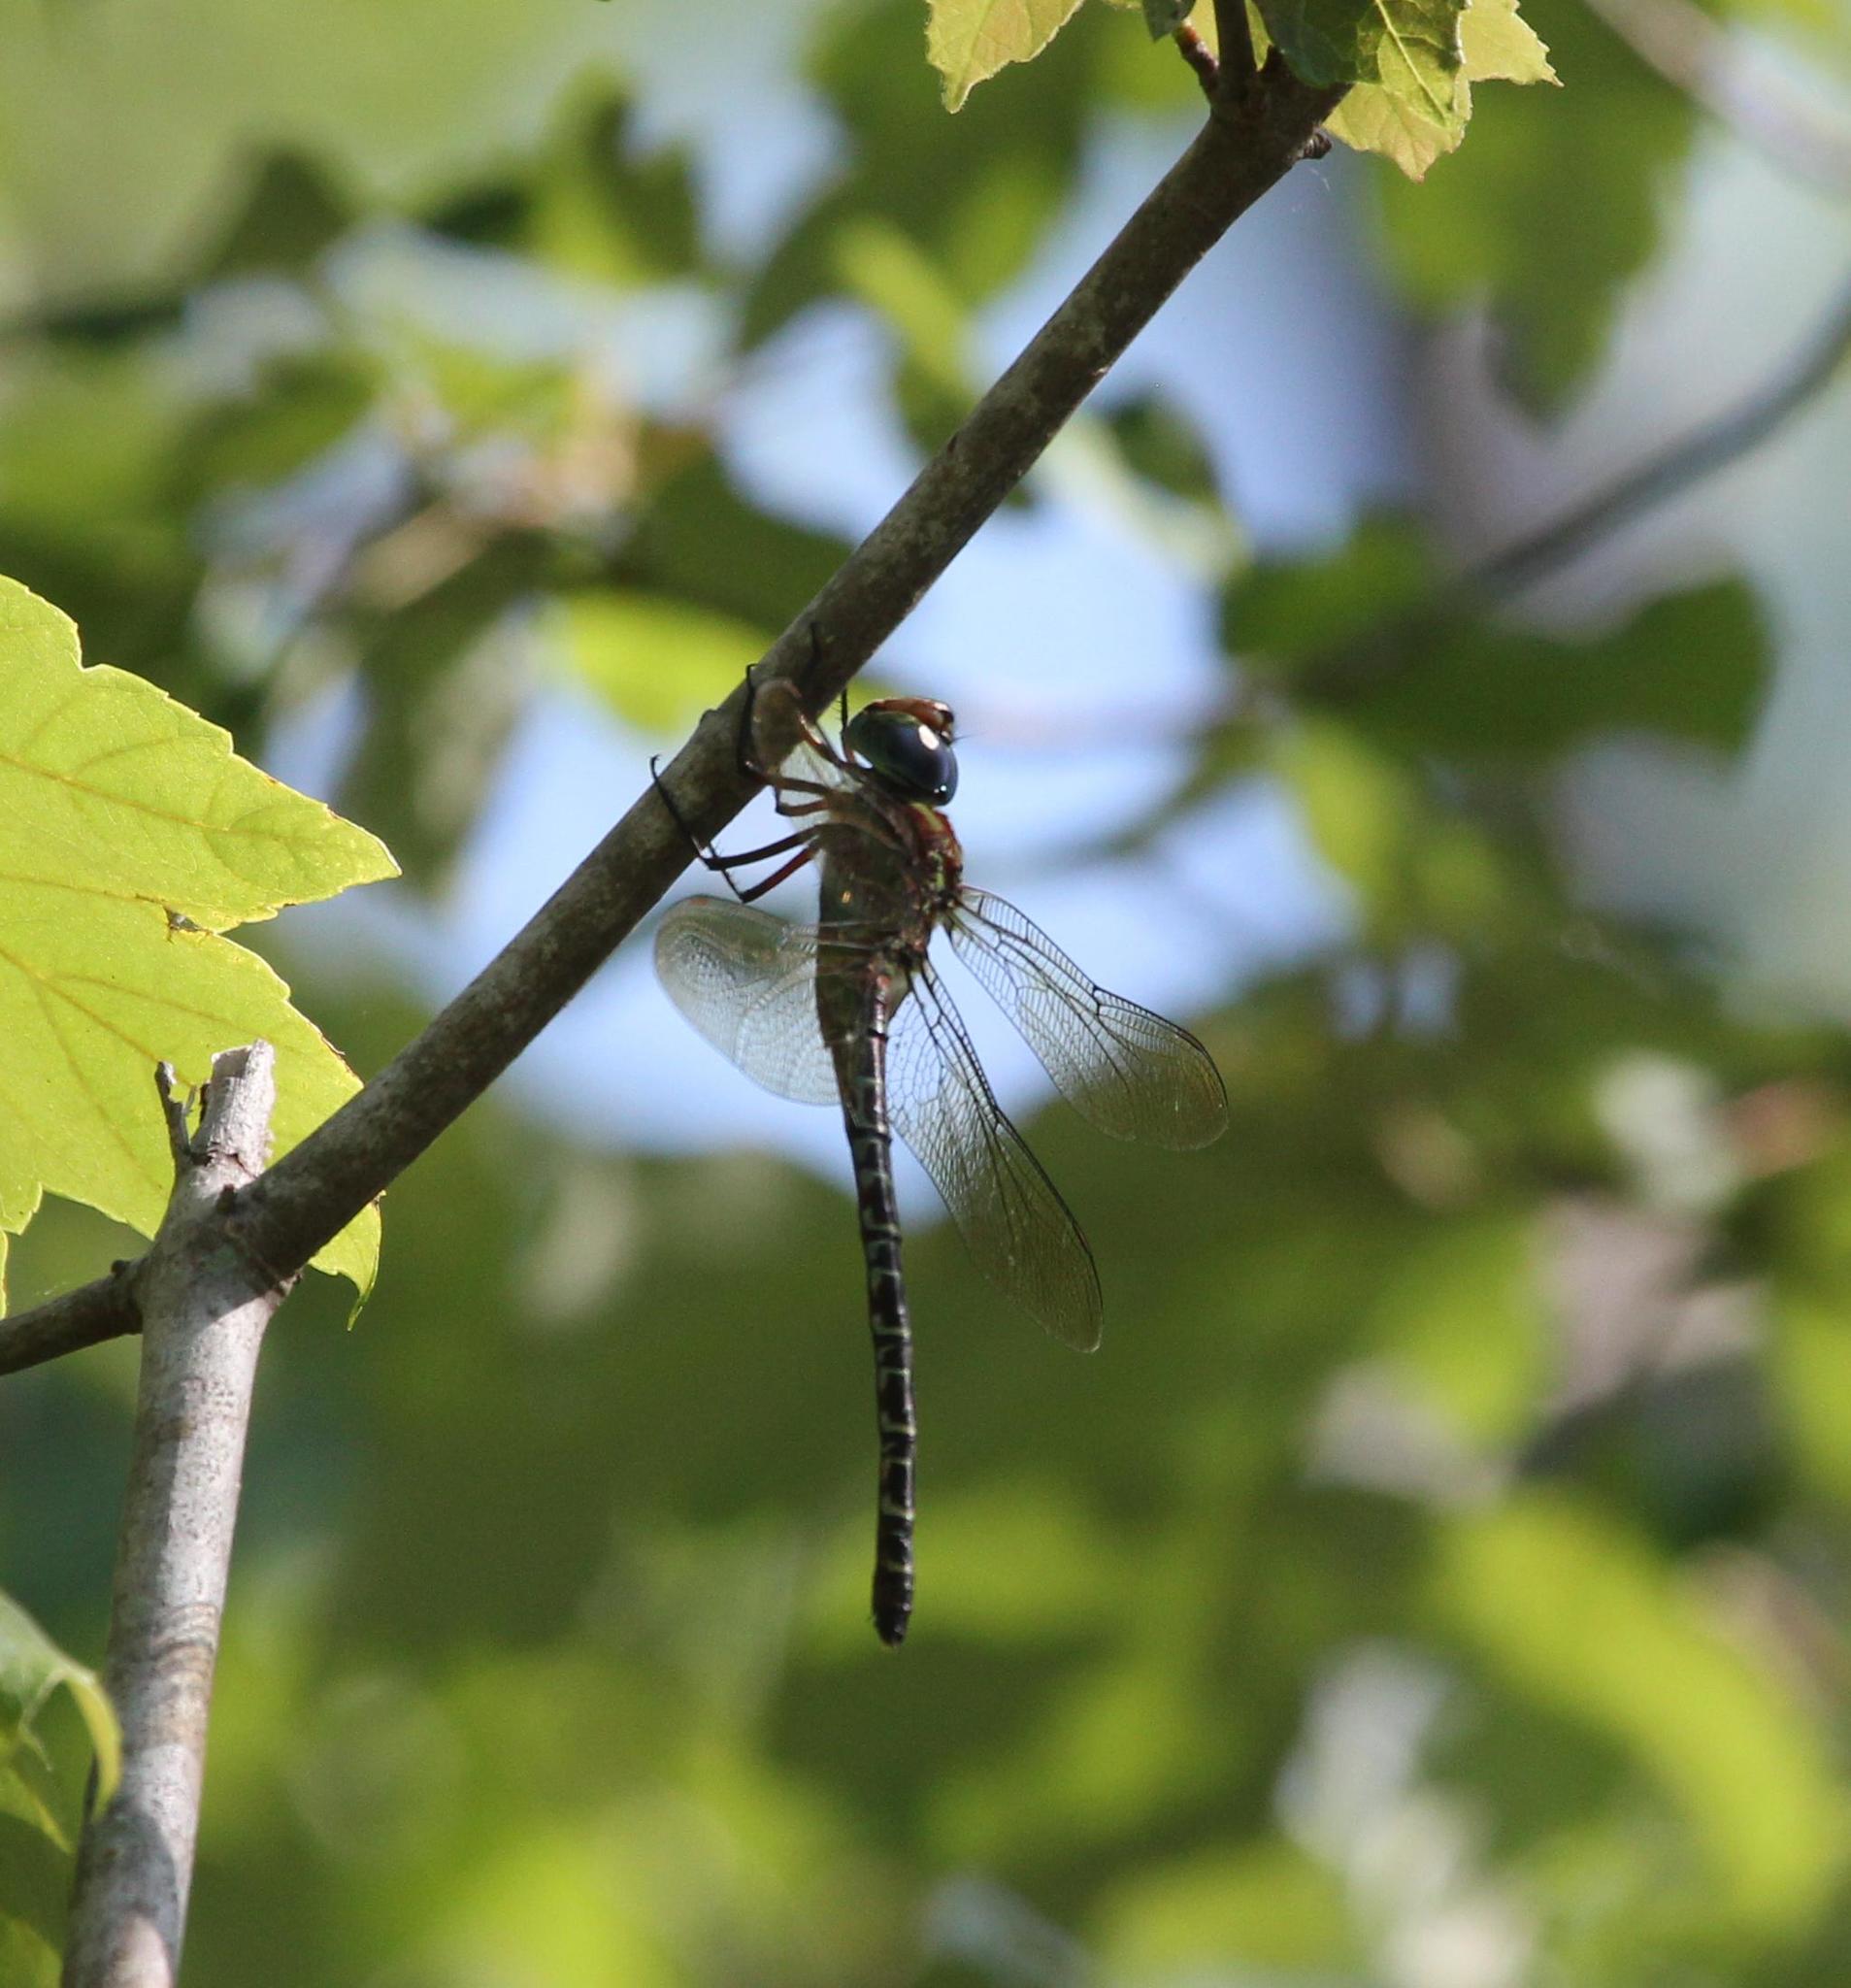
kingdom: Animalia
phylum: Arthropoda
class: Insecta
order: Odonata
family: Aeshnidae
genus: Coryphaeschna
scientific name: Coryphaeschna ingens
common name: Regal darner
